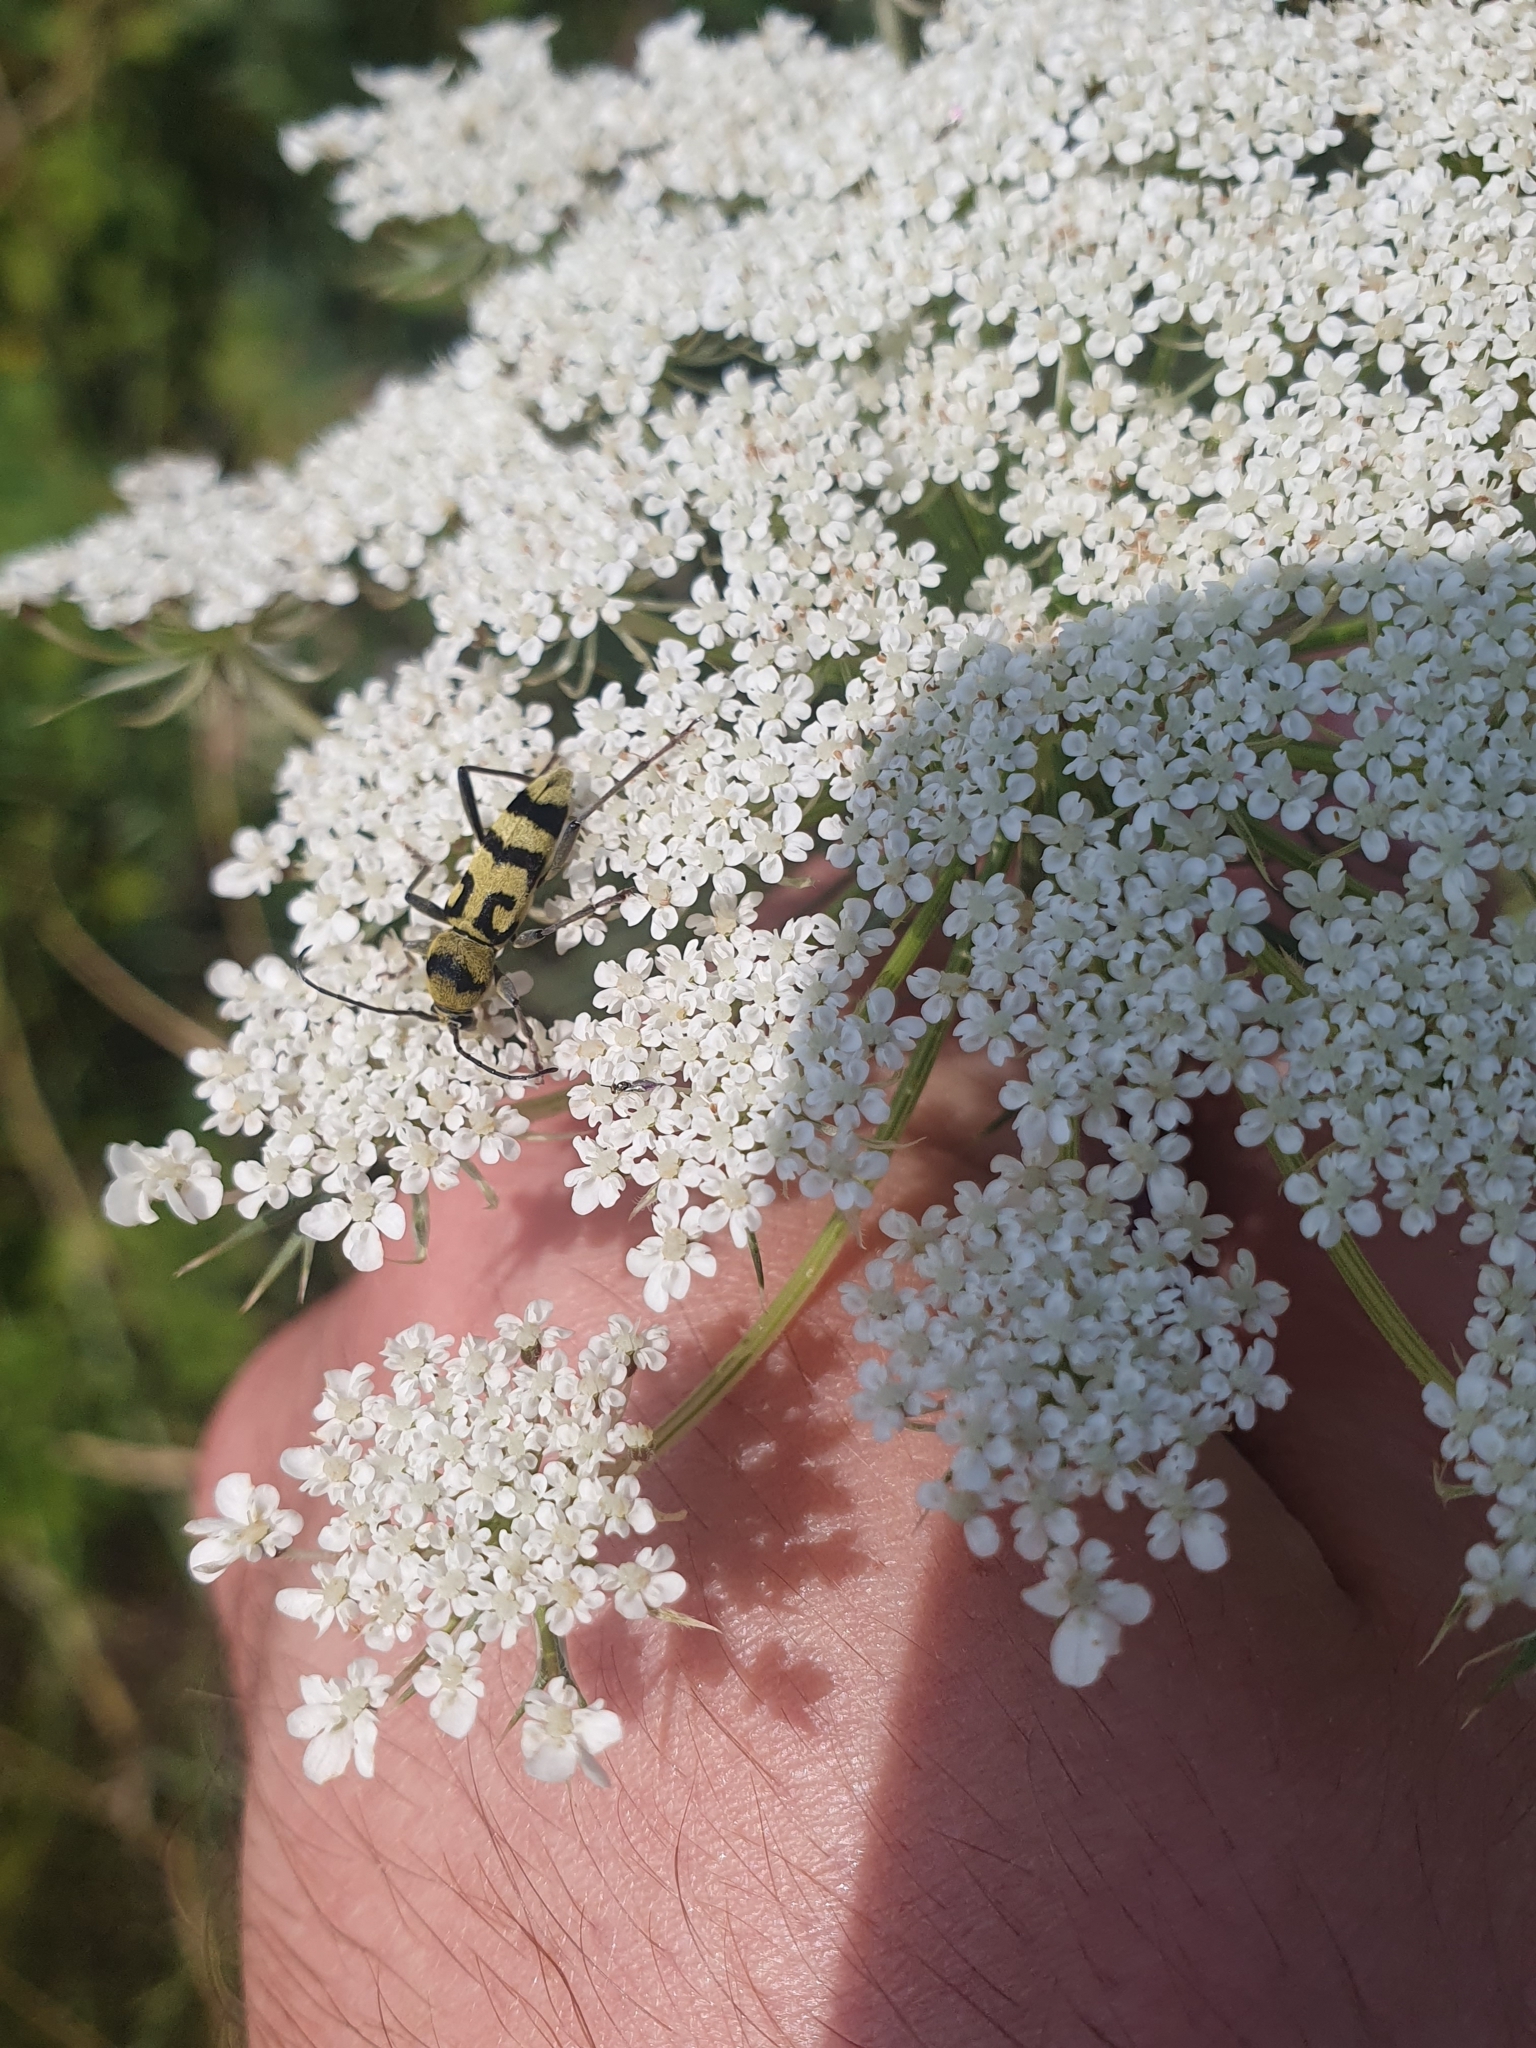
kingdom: Animalia
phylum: Arthropoda
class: Insecta
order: Coleoptera
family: Cerambycidae
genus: Chlorophorus
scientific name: Chlorophorus varius
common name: Grape wood borer
